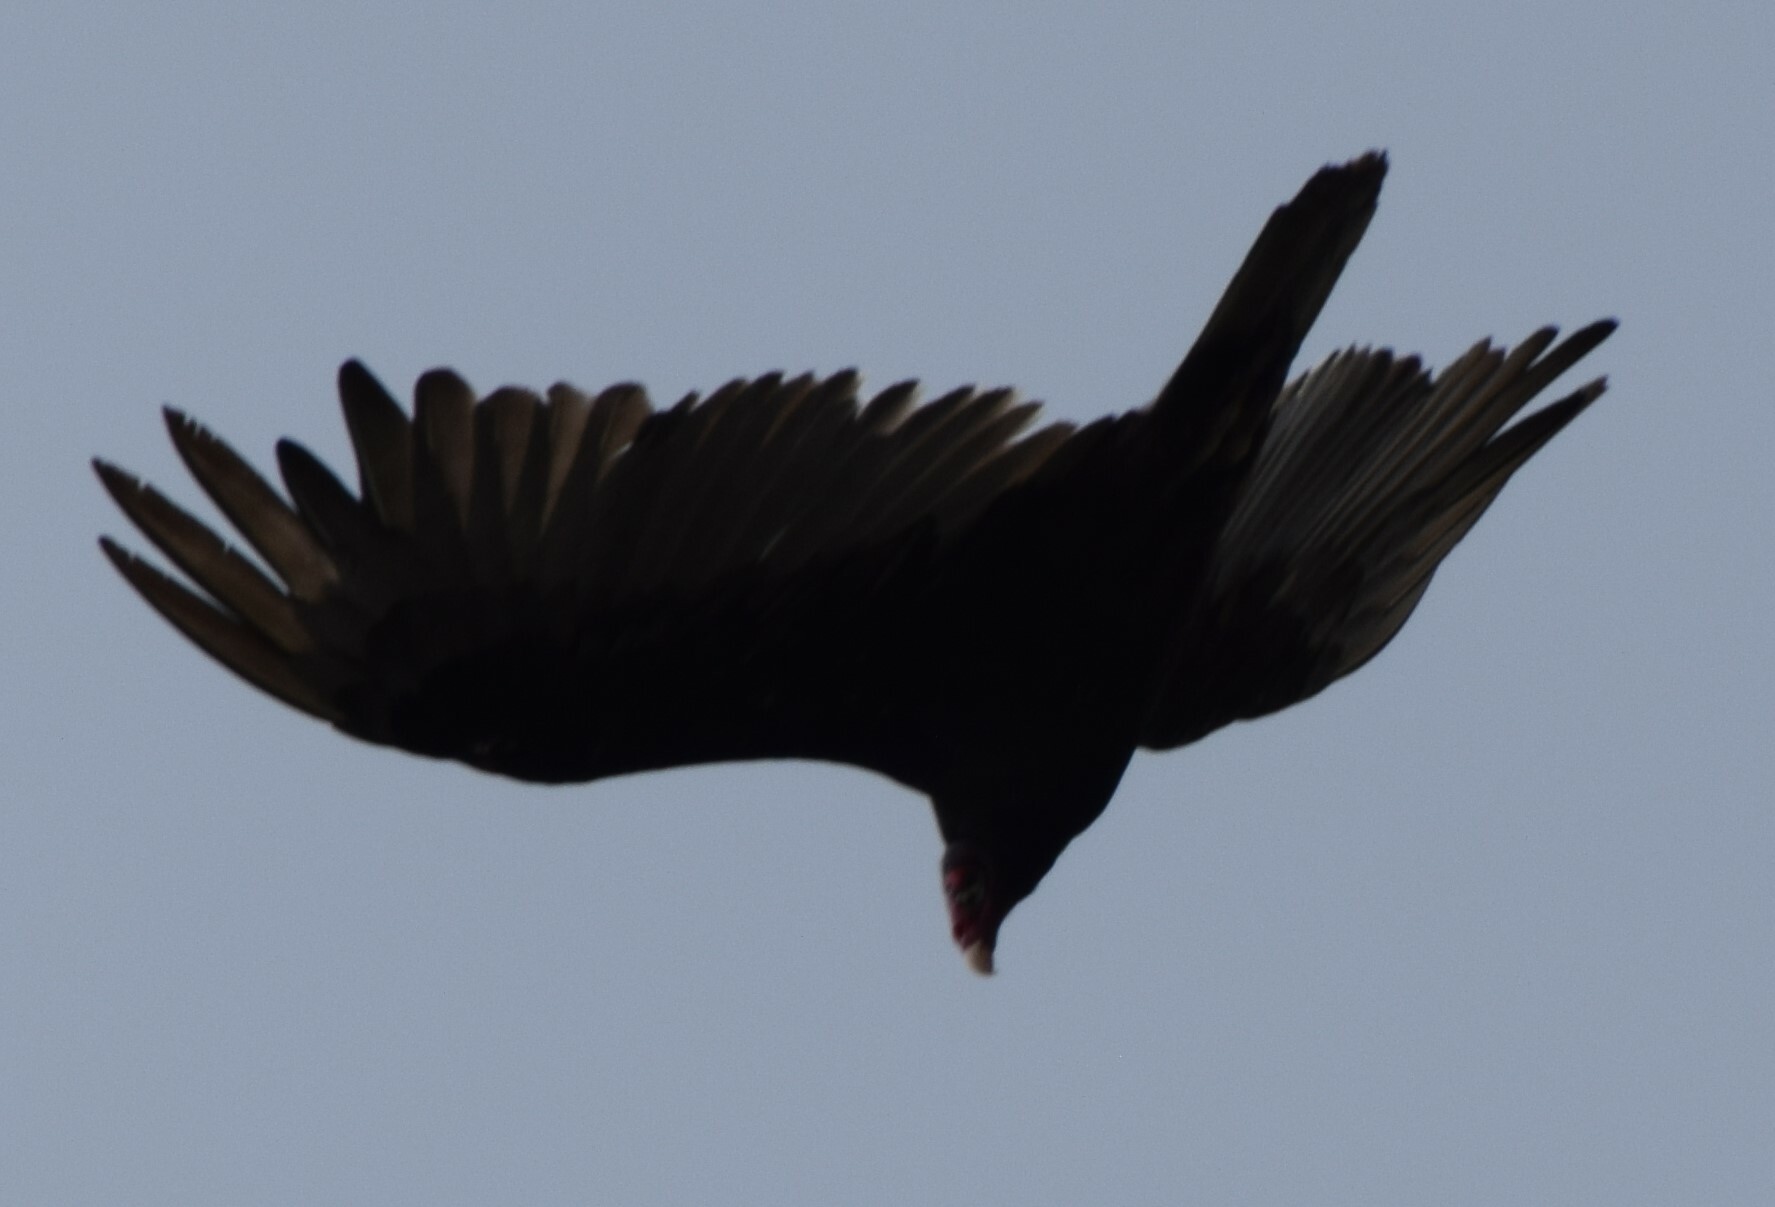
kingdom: Animalia
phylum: Chordata
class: Aves
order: Accipitriformes
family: Cathartidae
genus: Cathartes
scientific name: Cathartes aura
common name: Turkey vulture
